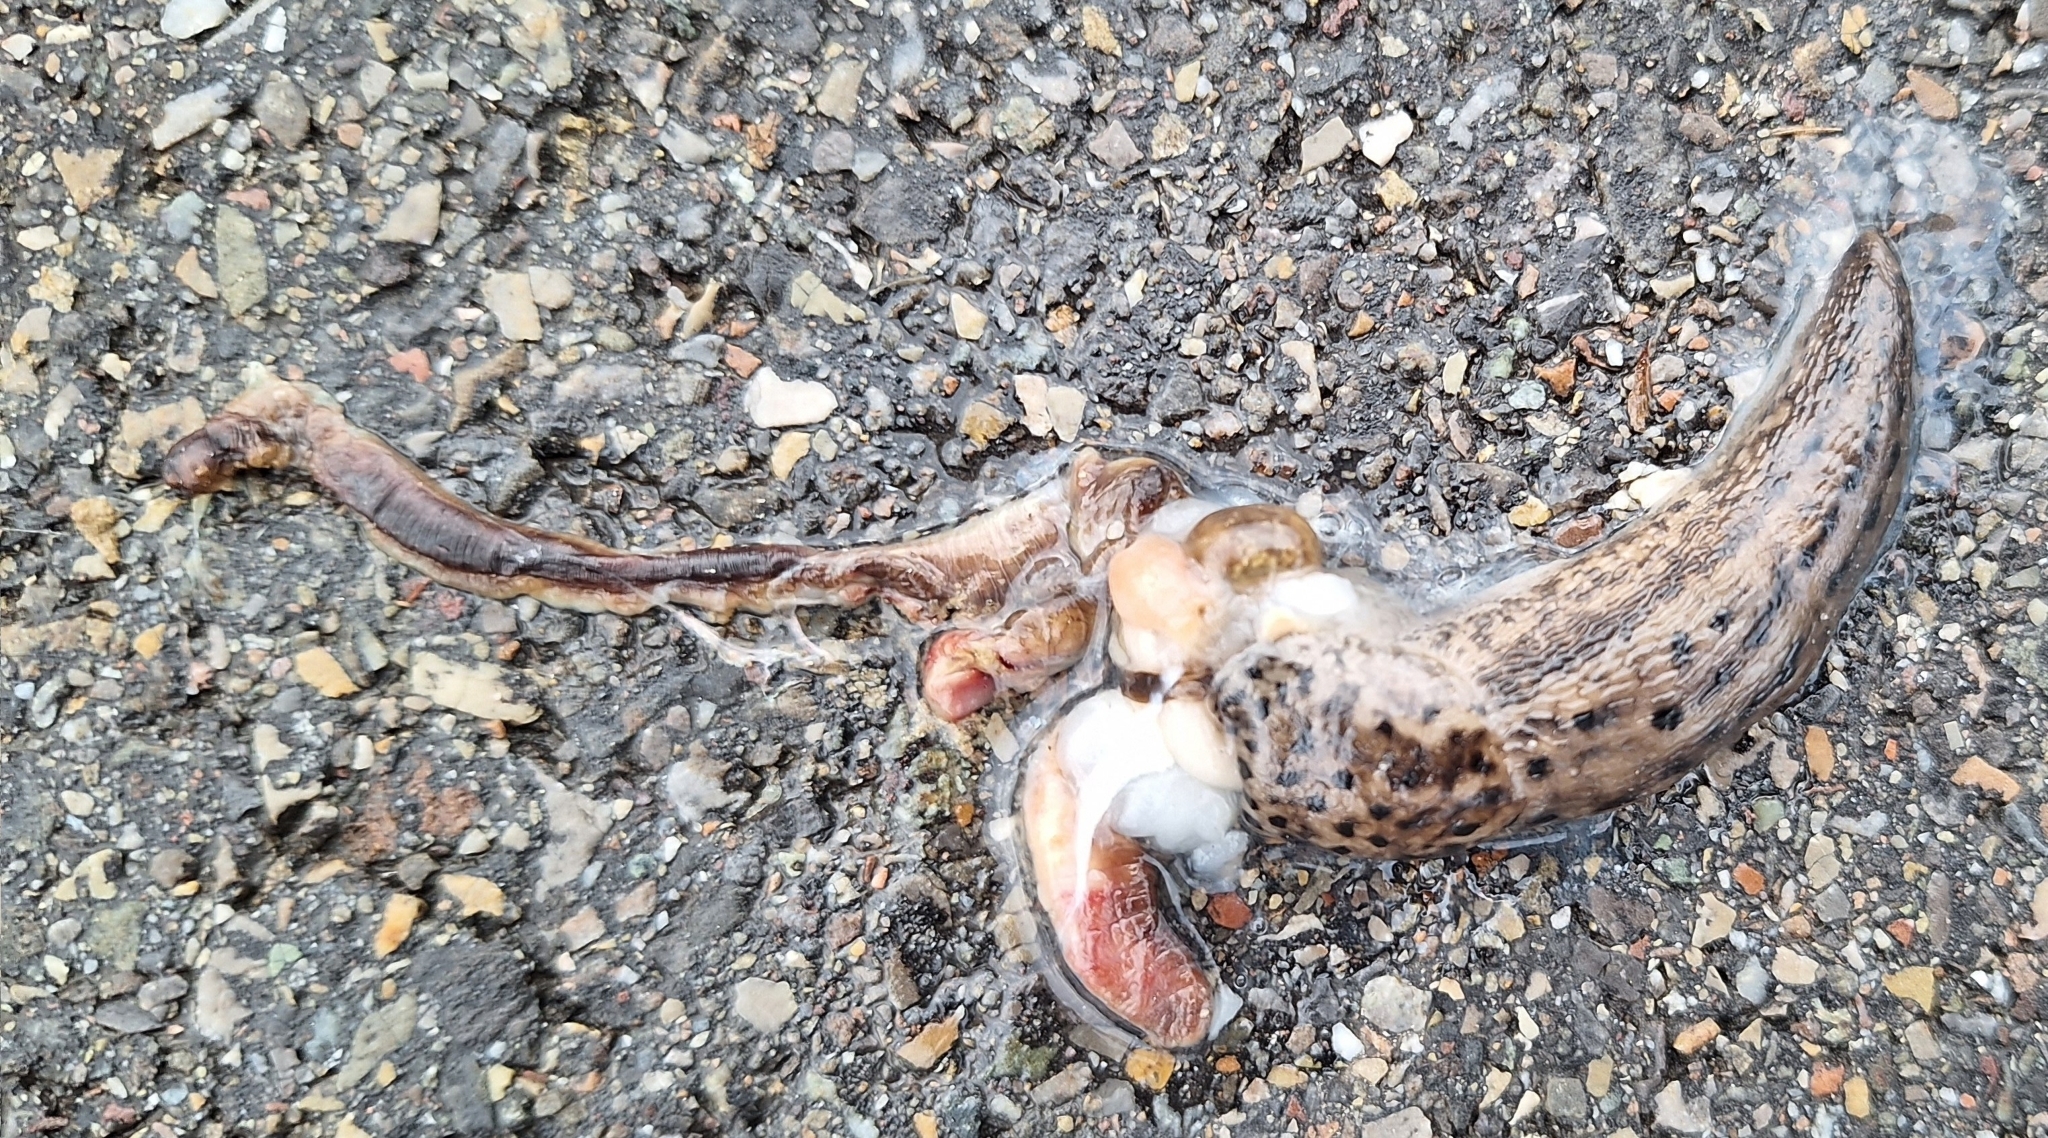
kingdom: Animalia
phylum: Mollusca
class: Gastropoda
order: Stylommatophora
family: Limacidae
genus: Limax
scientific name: Limax maximus
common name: Great grey slug
